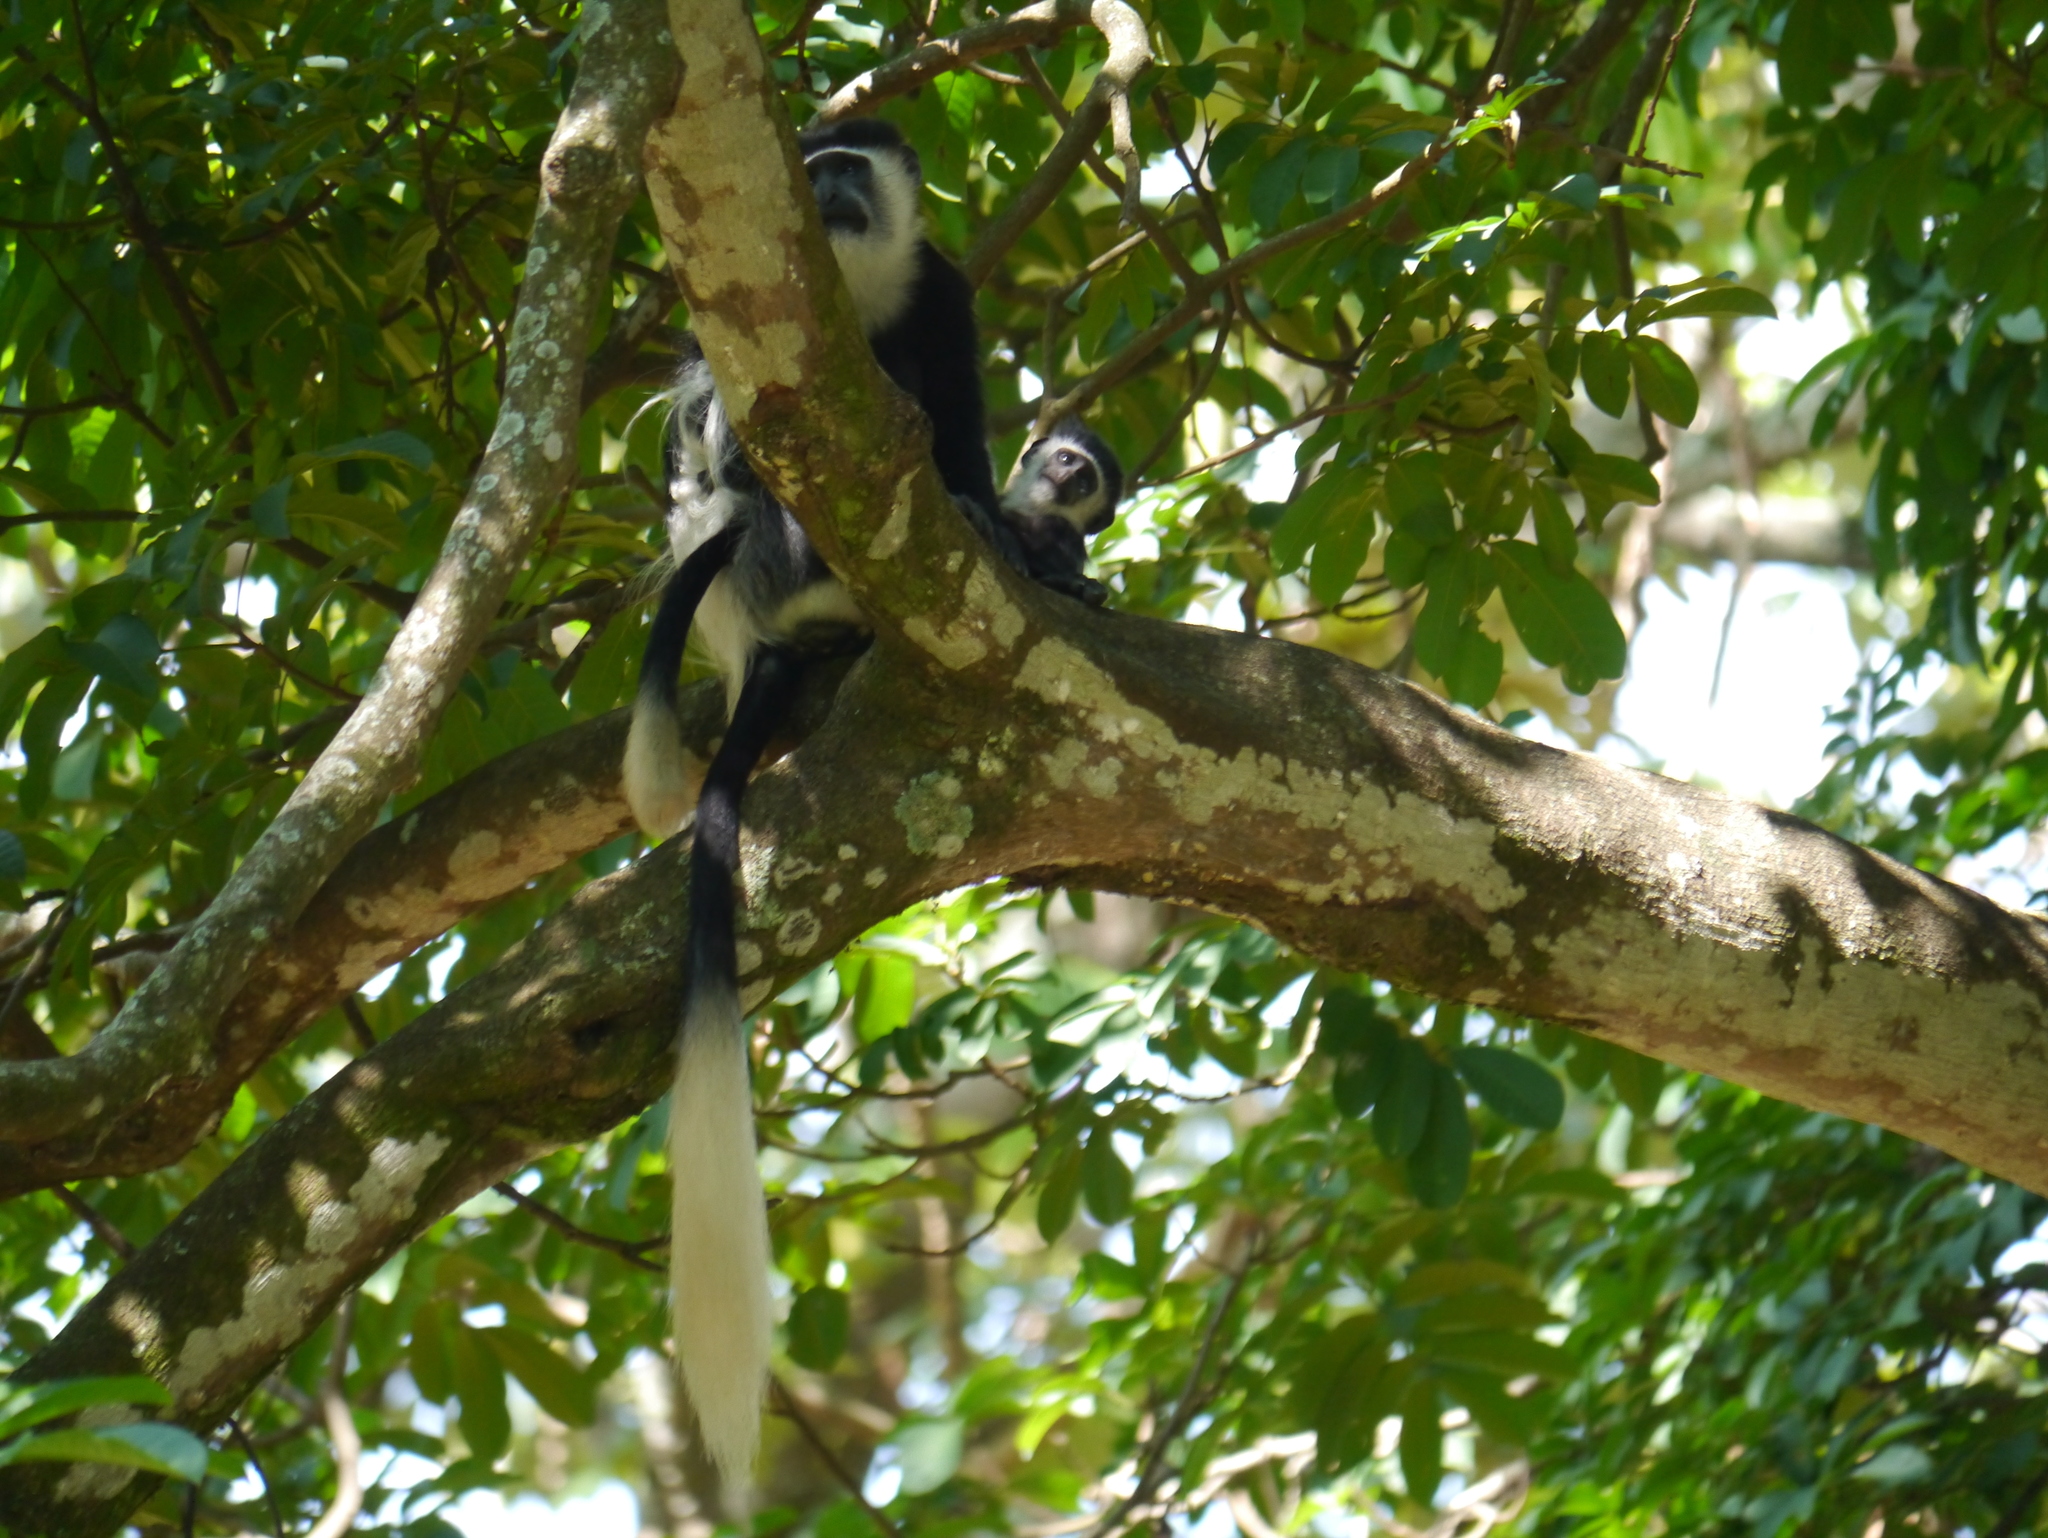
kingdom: Animalia
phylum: Chordata
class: Mammalia
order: Primates
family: Cercopithecidae
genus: Colobus
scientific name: Colobus guereza
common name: Mantled guereza
